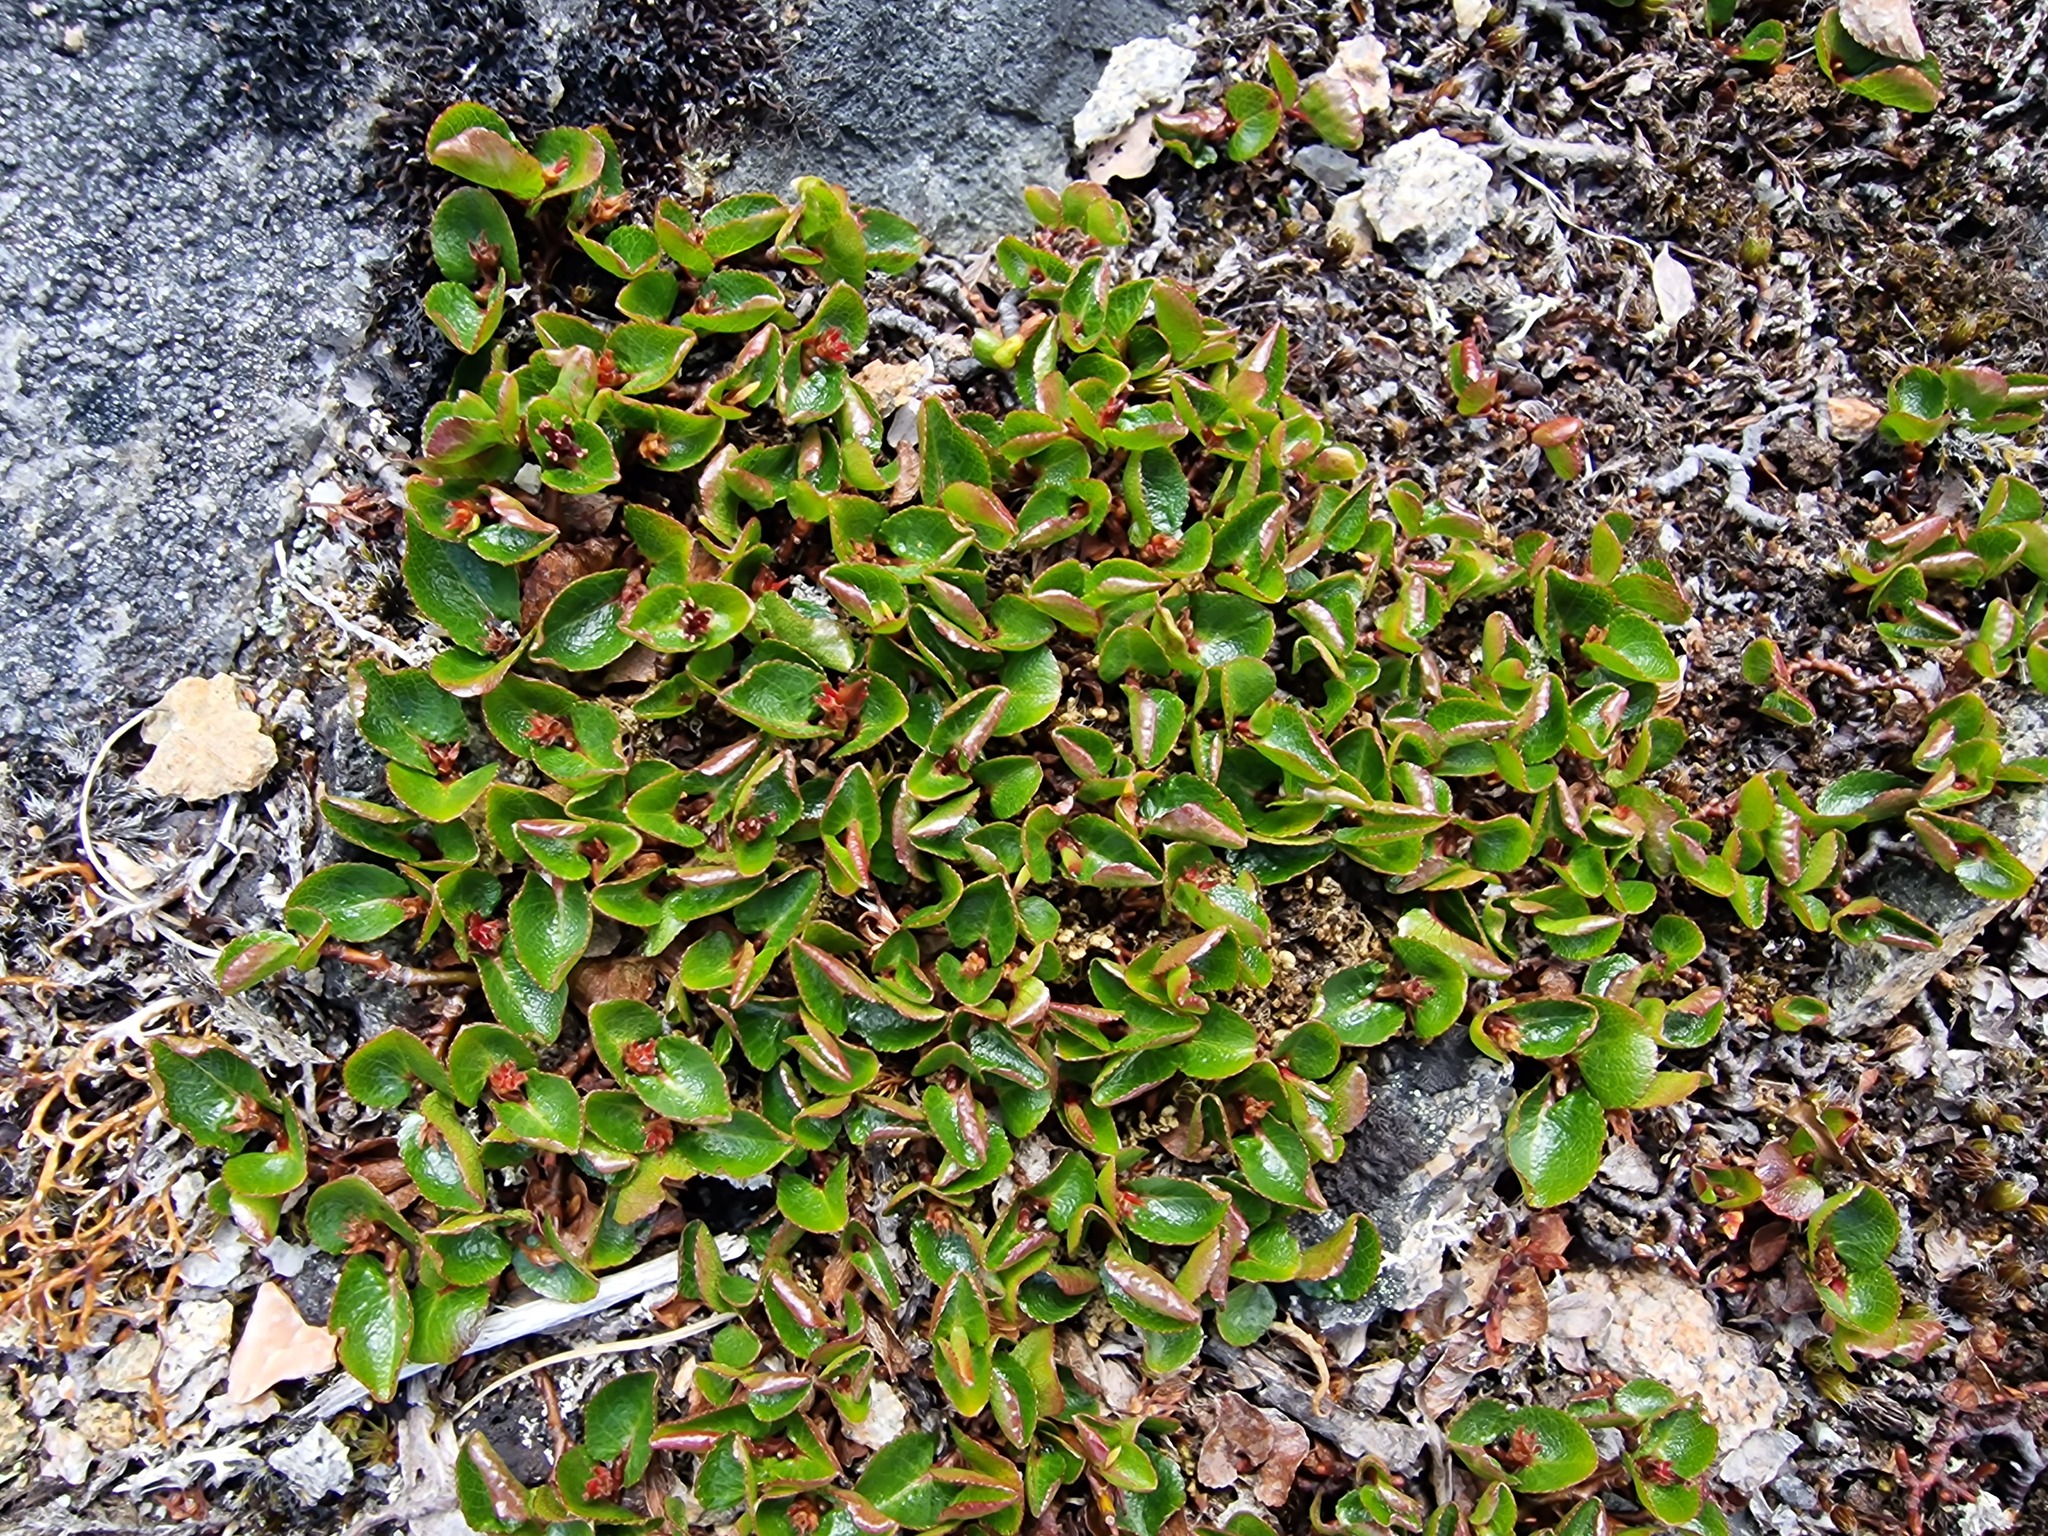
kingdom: Plantae
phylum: Tracheophyta
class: Magnoliopsida
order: Malpighiales
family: Salicaceae
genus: Salix
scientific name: Salix herbacea
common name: Dwarf willow
